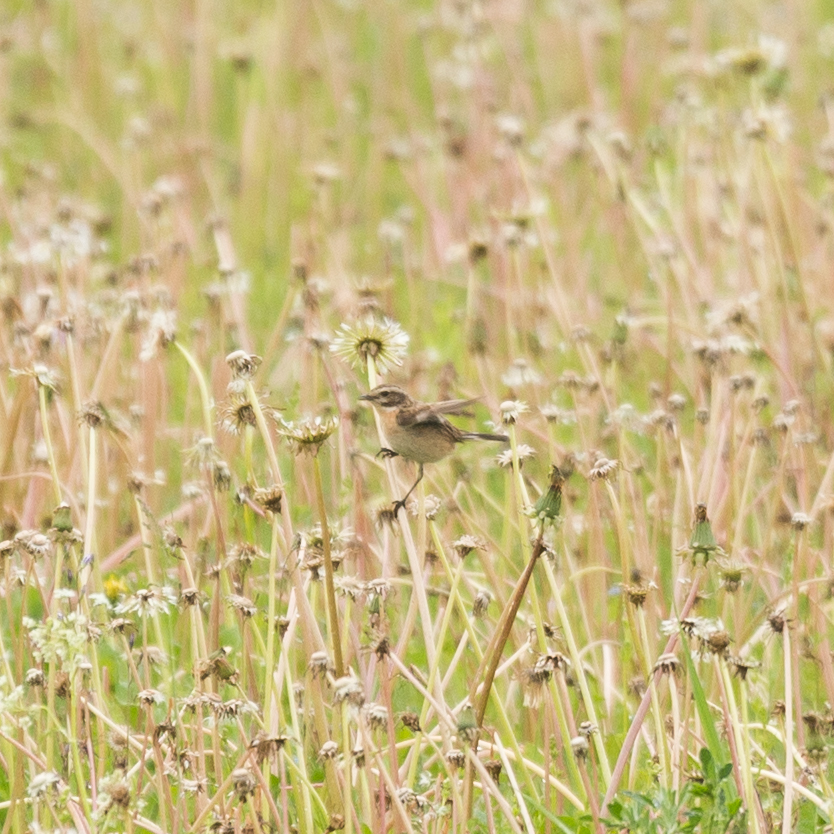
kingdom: Animalia
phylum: Chordata
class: Aves
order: Passeriformes
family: Muscicapidae
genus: Saxicola
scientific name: Saxicola rubetra
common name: Whinchat
